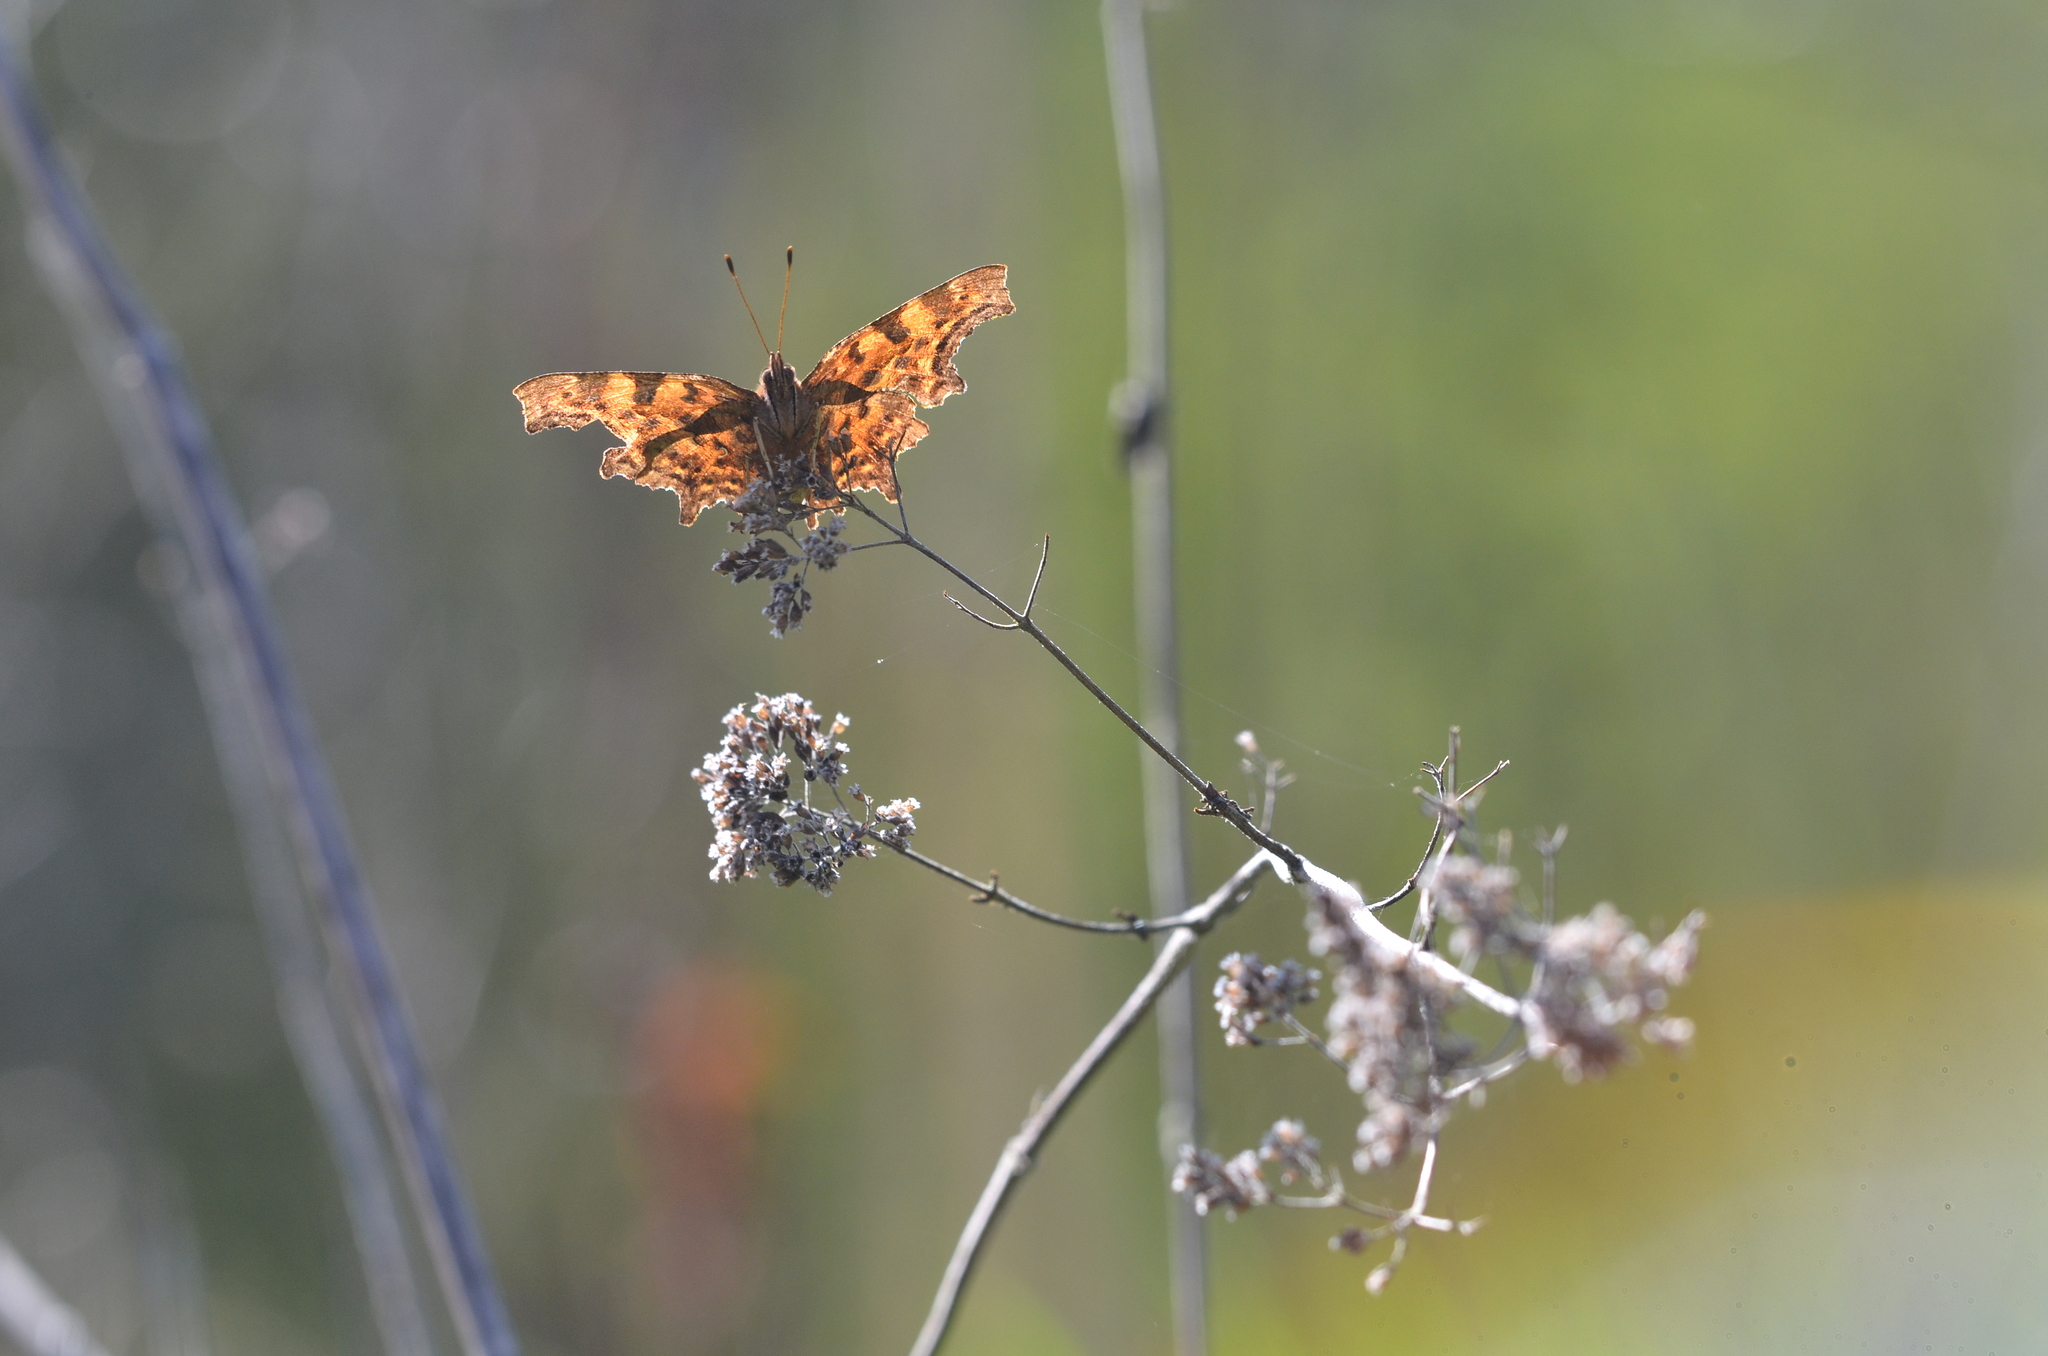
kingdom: Animalia
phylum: Arthropoda
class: Insecta
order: Lepidoptera
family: Nymphalidae
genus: Polygonia
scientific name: Polygonia c-album
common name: Comma
